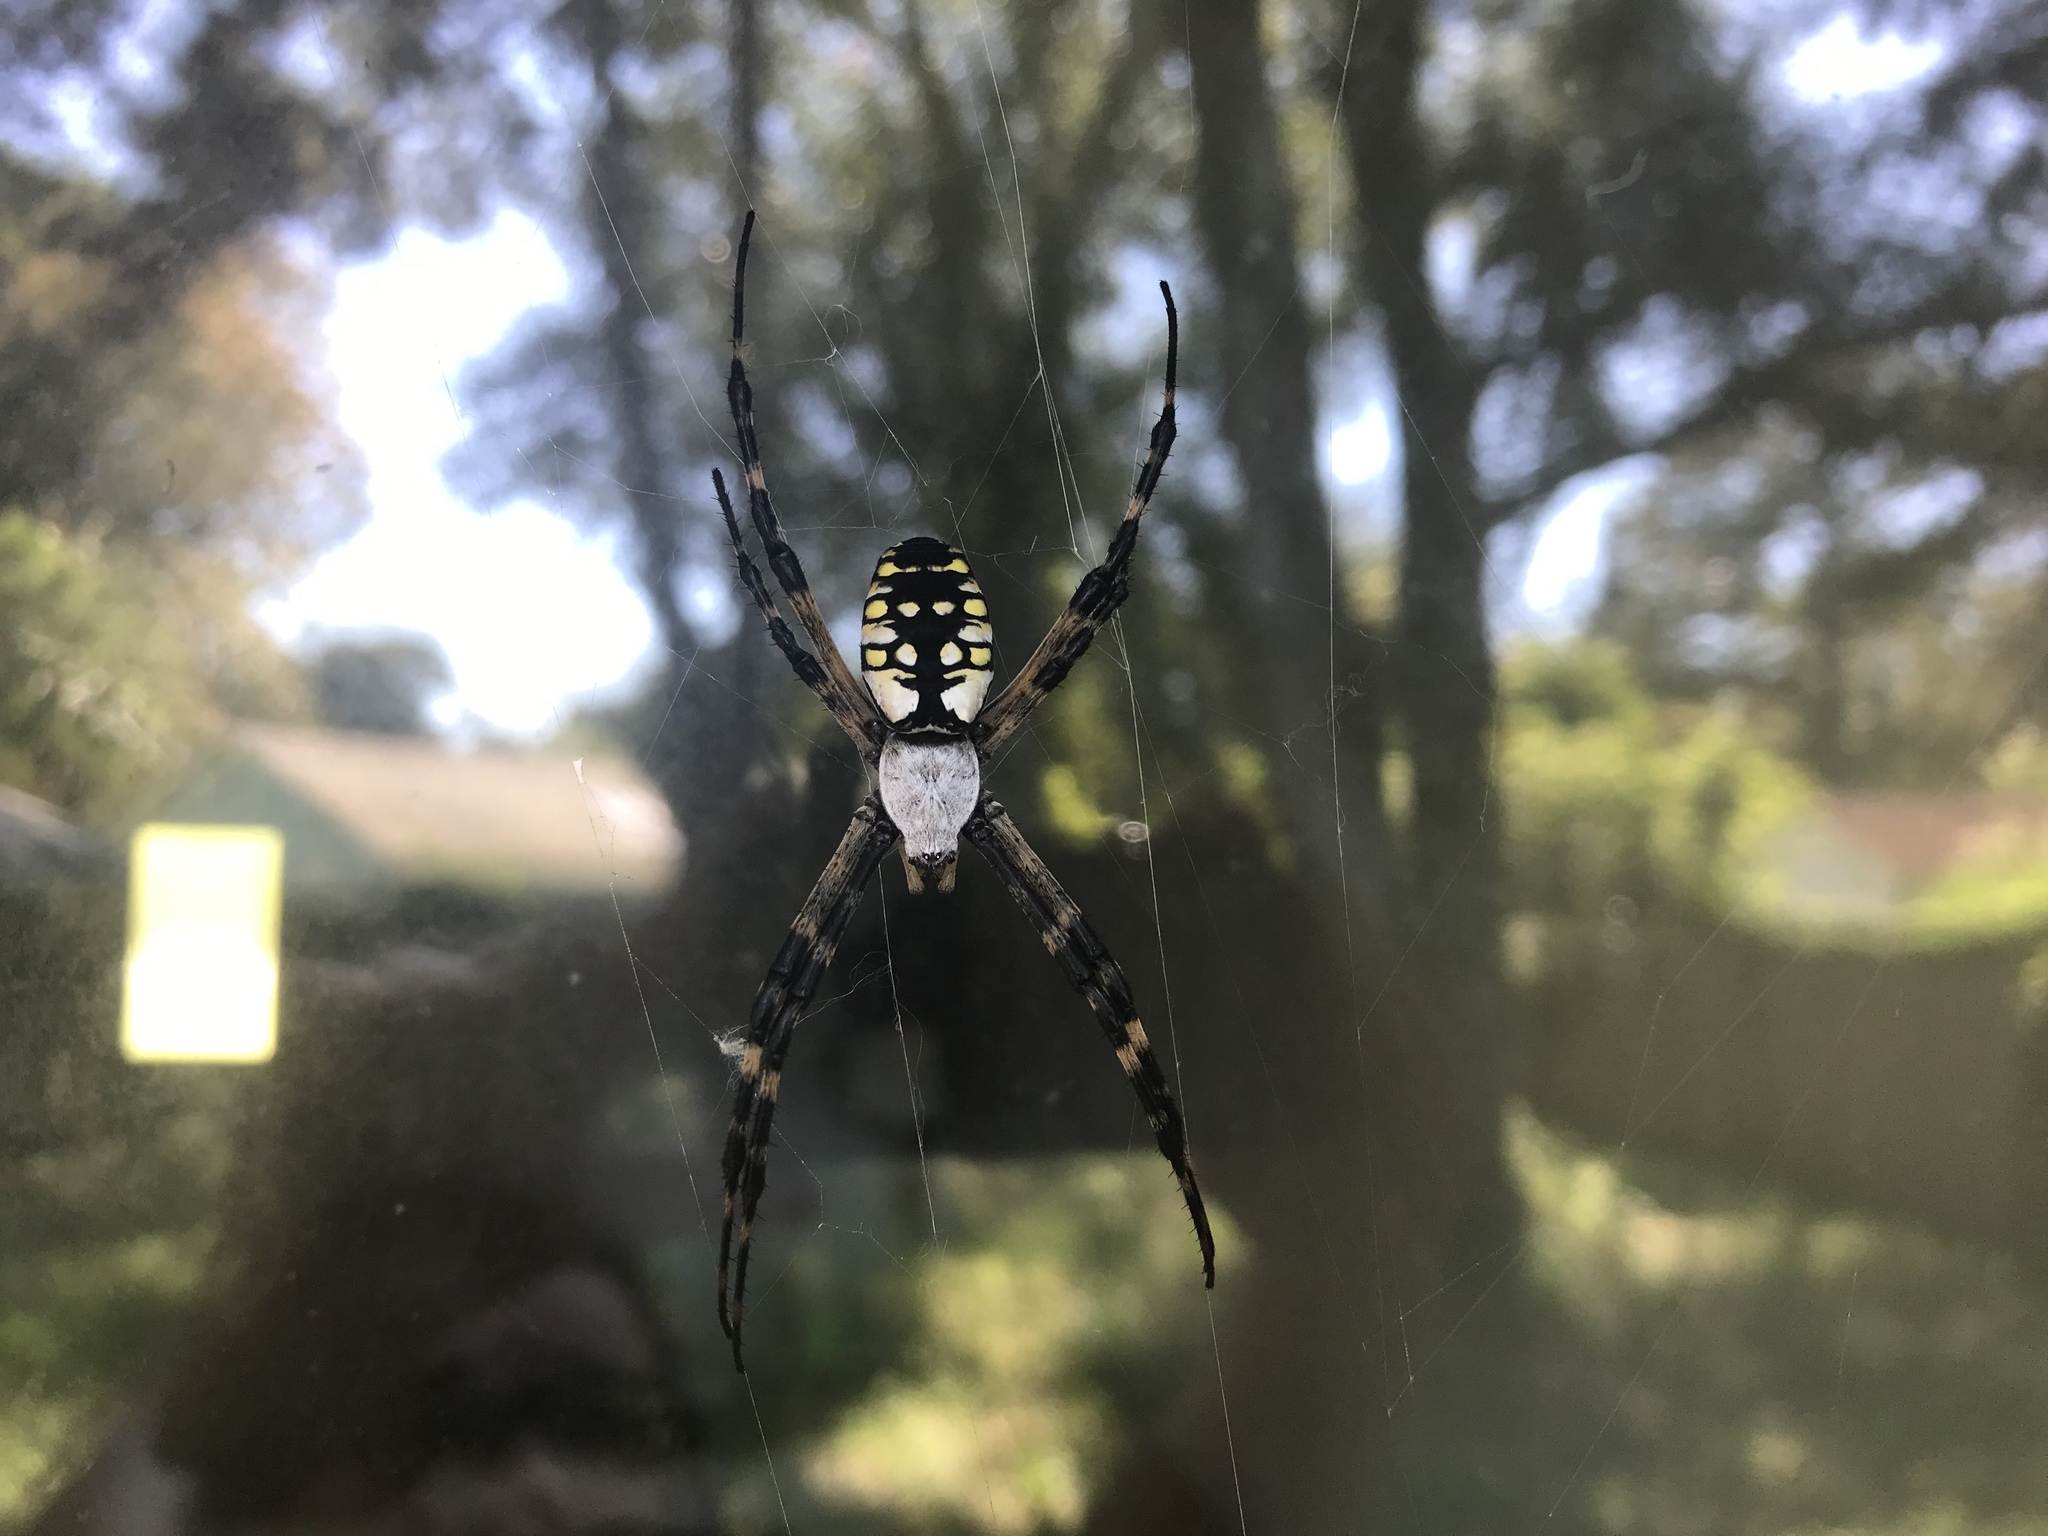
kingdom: Animalia
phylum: Arthropoda
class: Arachnida
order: Araneae
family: Araneidae
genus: Argiope
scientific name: Argiope aurantia
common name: Orb weavers
